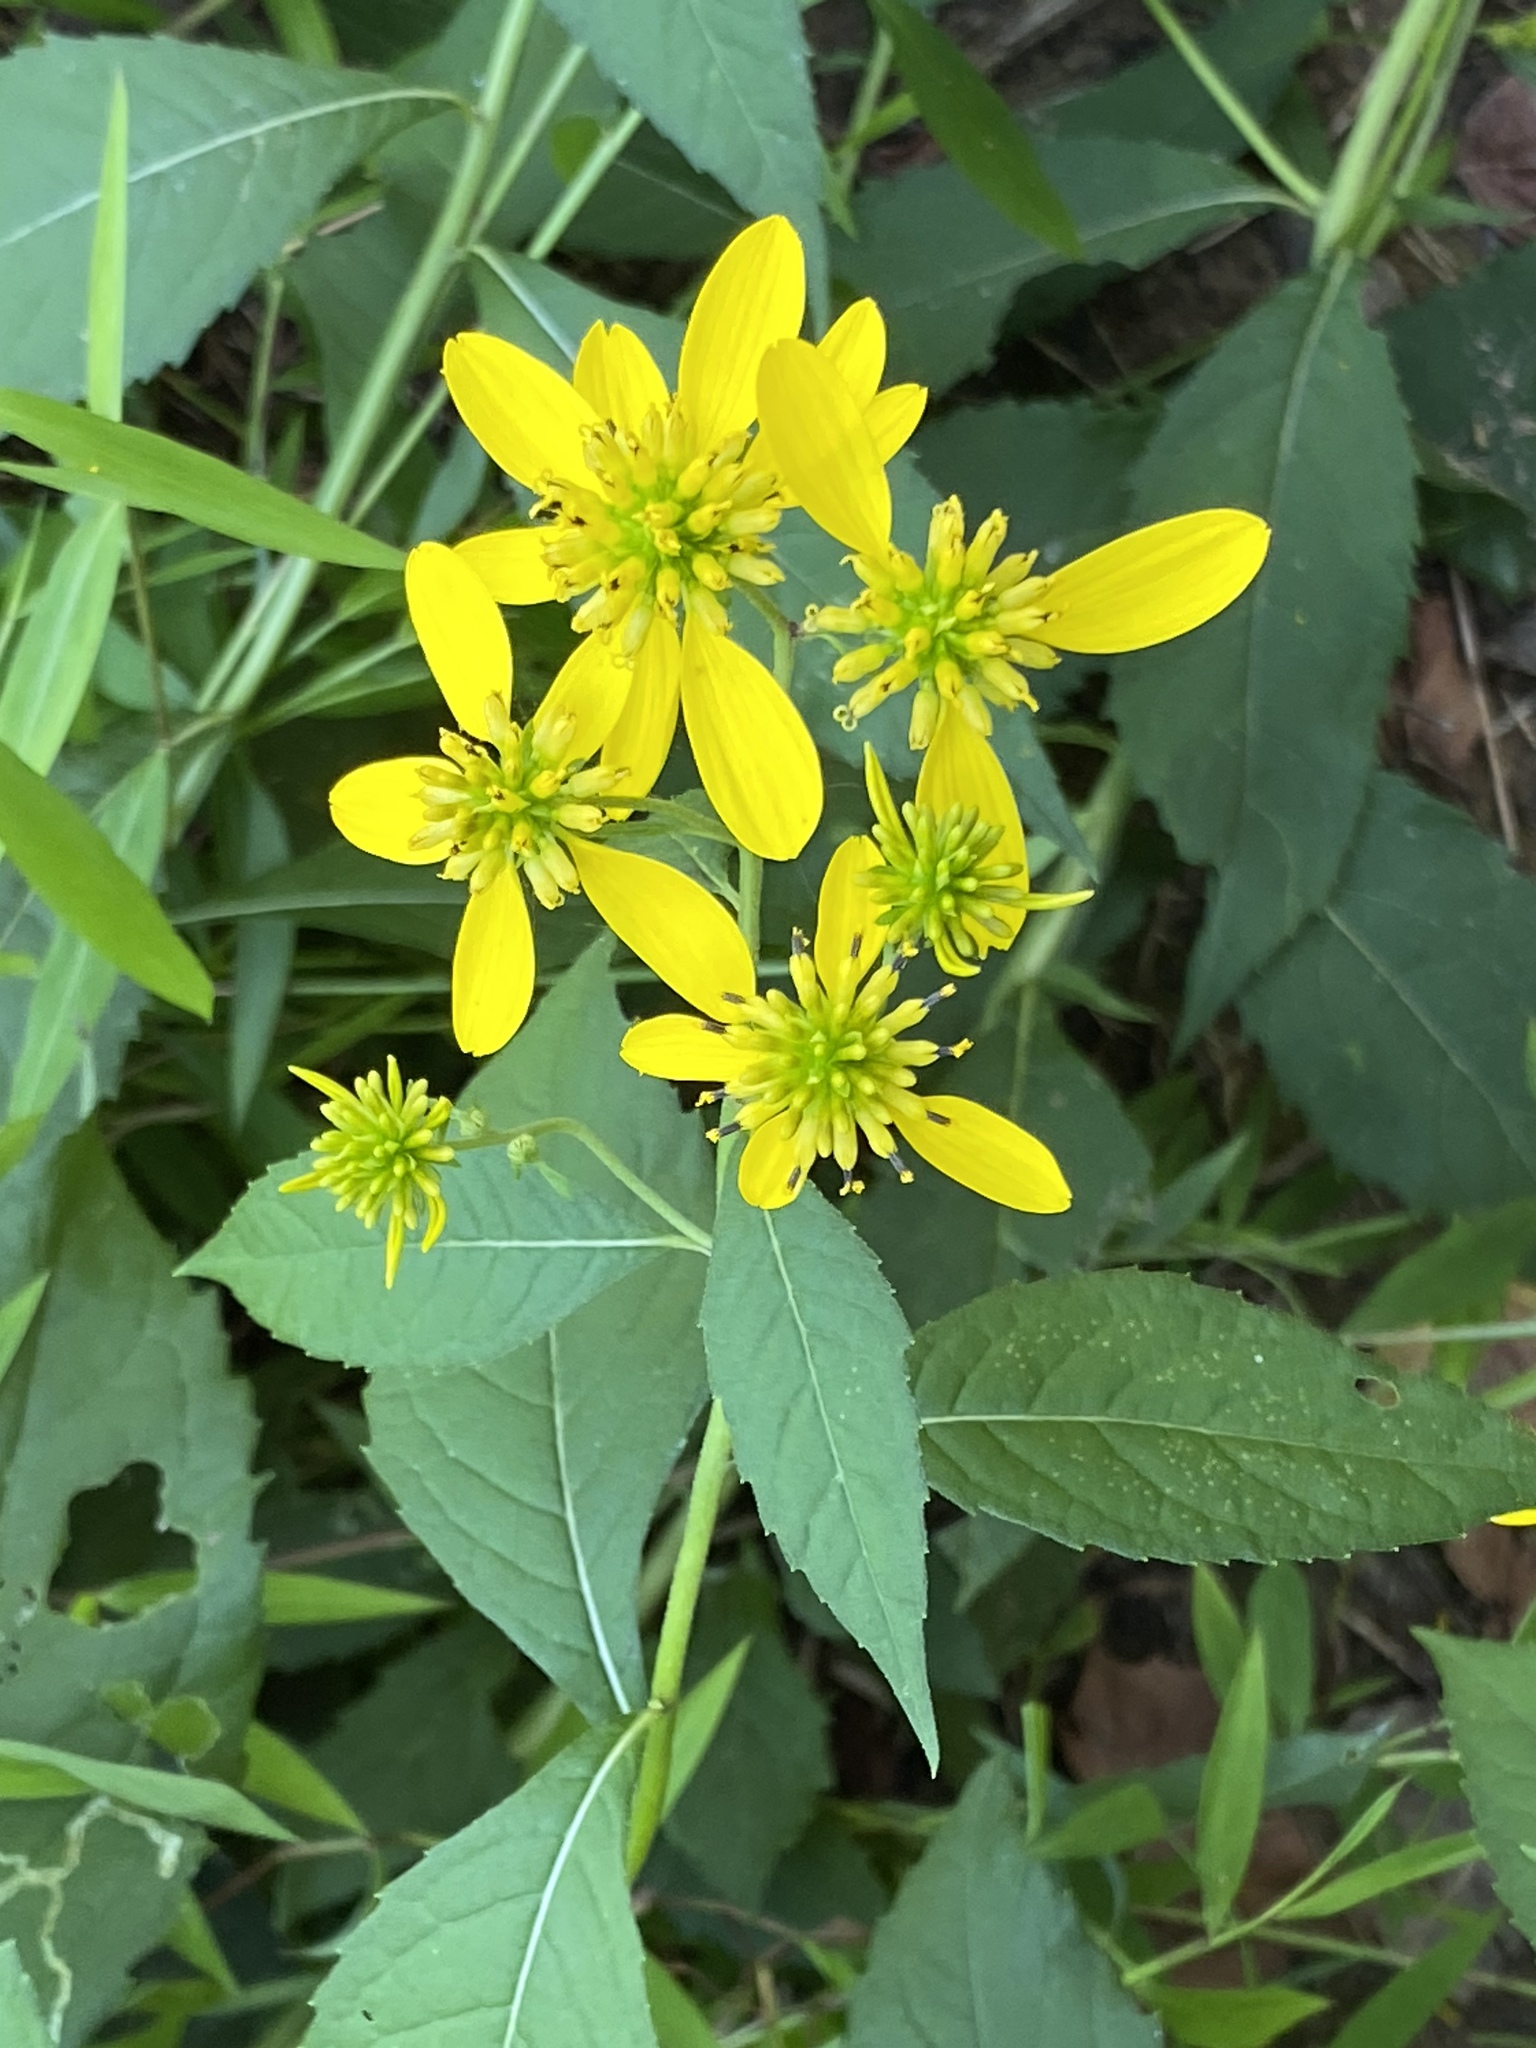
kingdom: Plantae
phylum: Tracheophyta
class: Magnoliopsida
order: Asterales
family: Asteraceae
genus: Verbesina
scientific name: Verbesina alternifolia
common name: Wingstem
